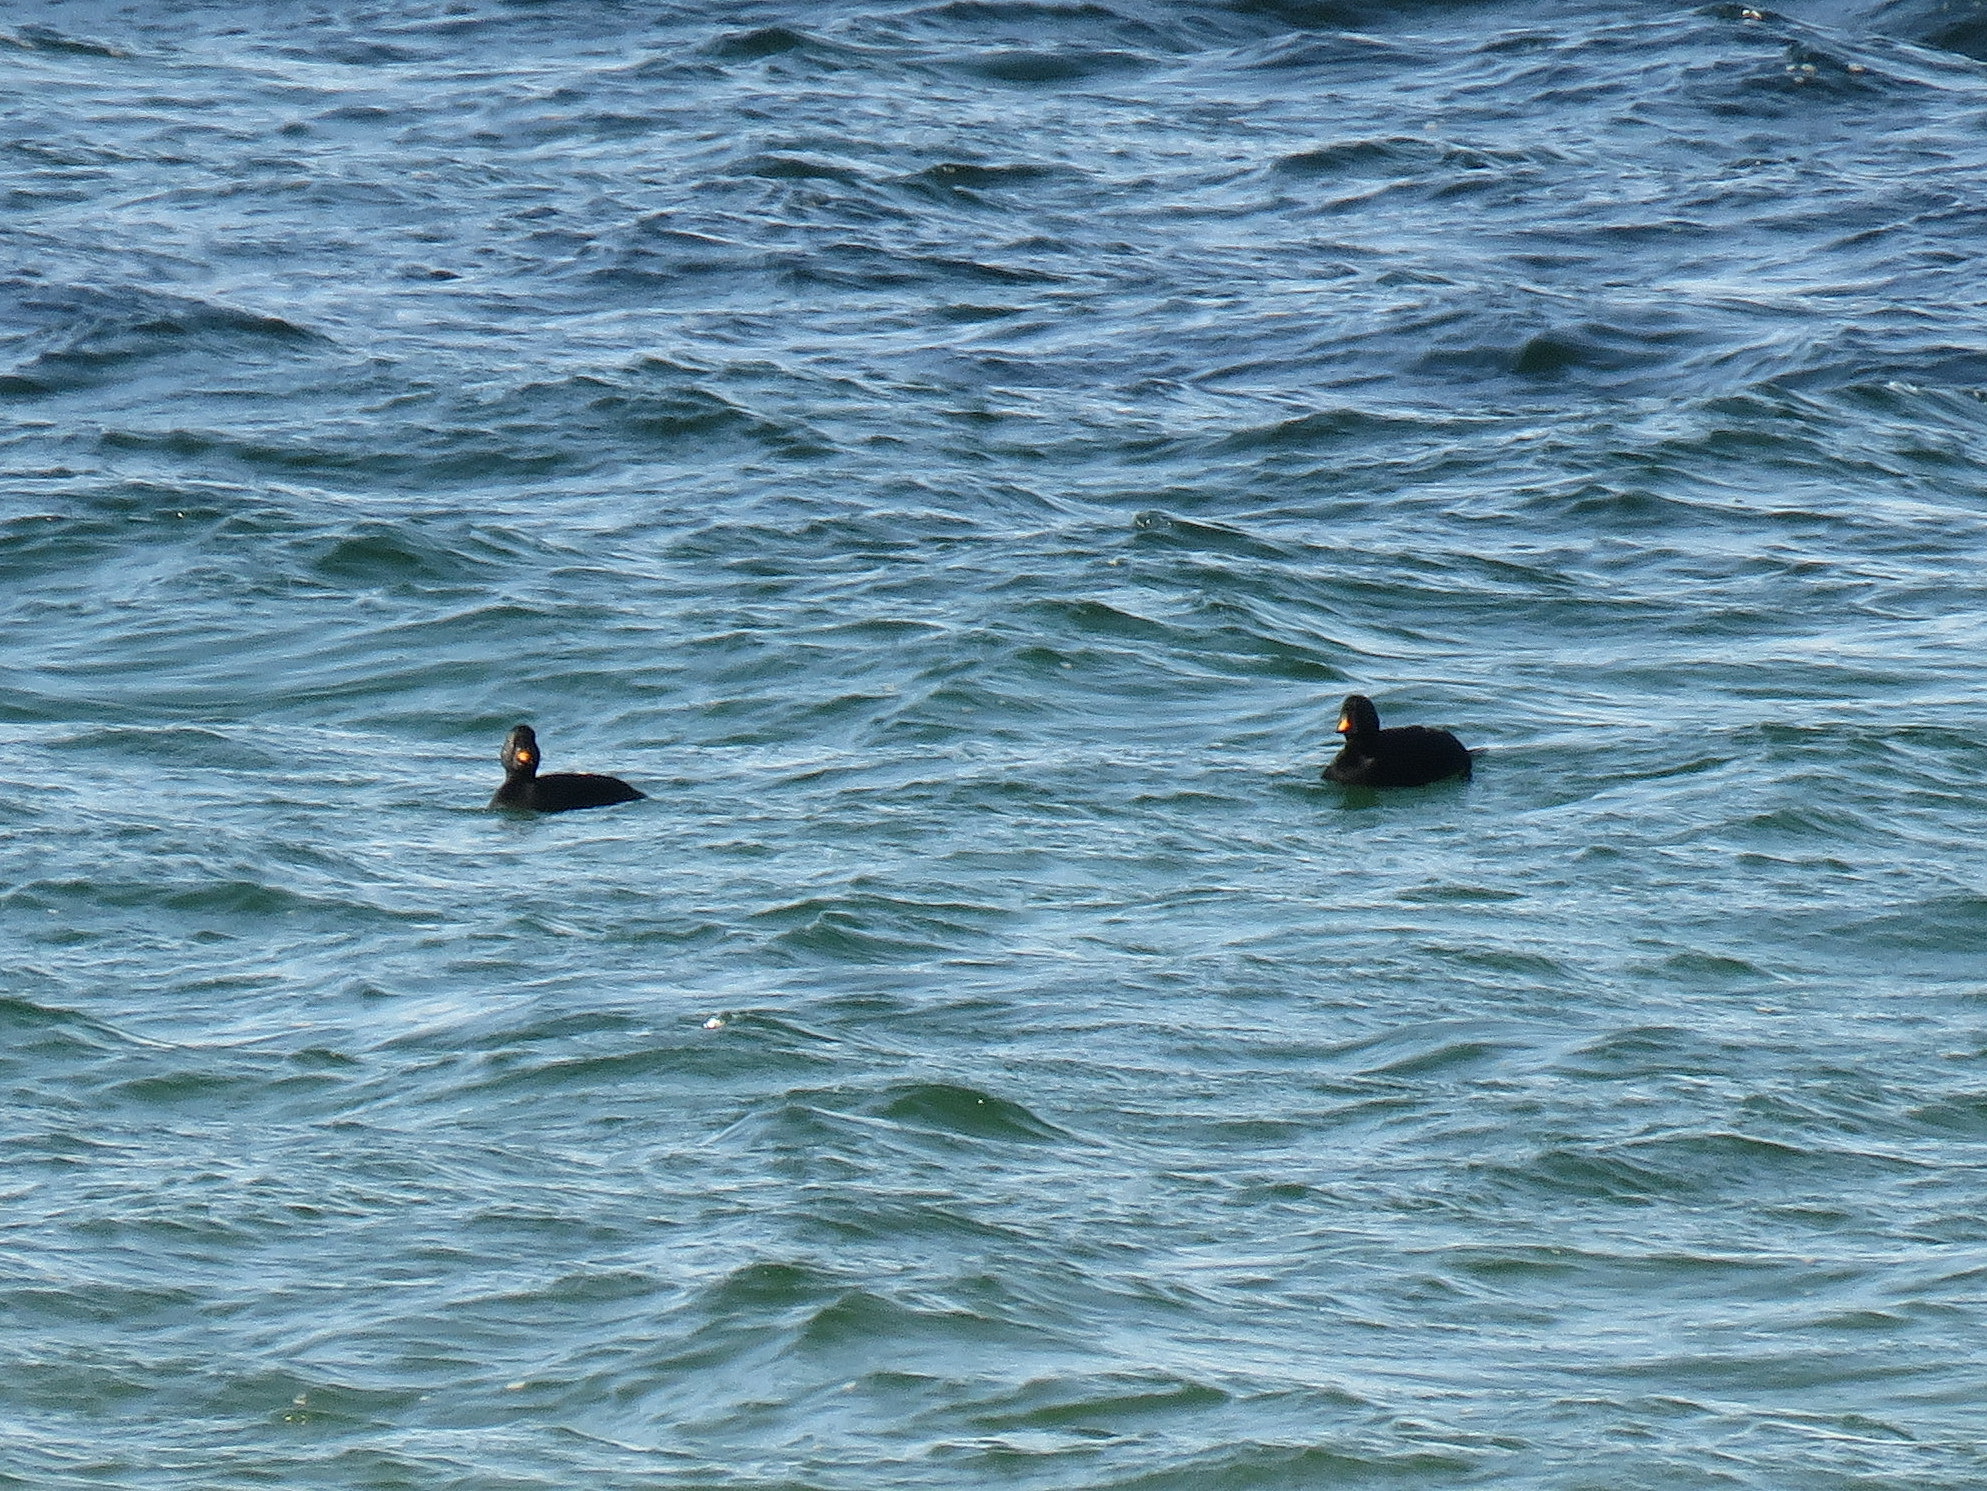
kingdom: Animalia
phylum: Chordata
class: Aves
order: Anseriformes
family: Anatidae
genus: Melanitta
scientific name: Melanitta nigra
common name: Common scoter
